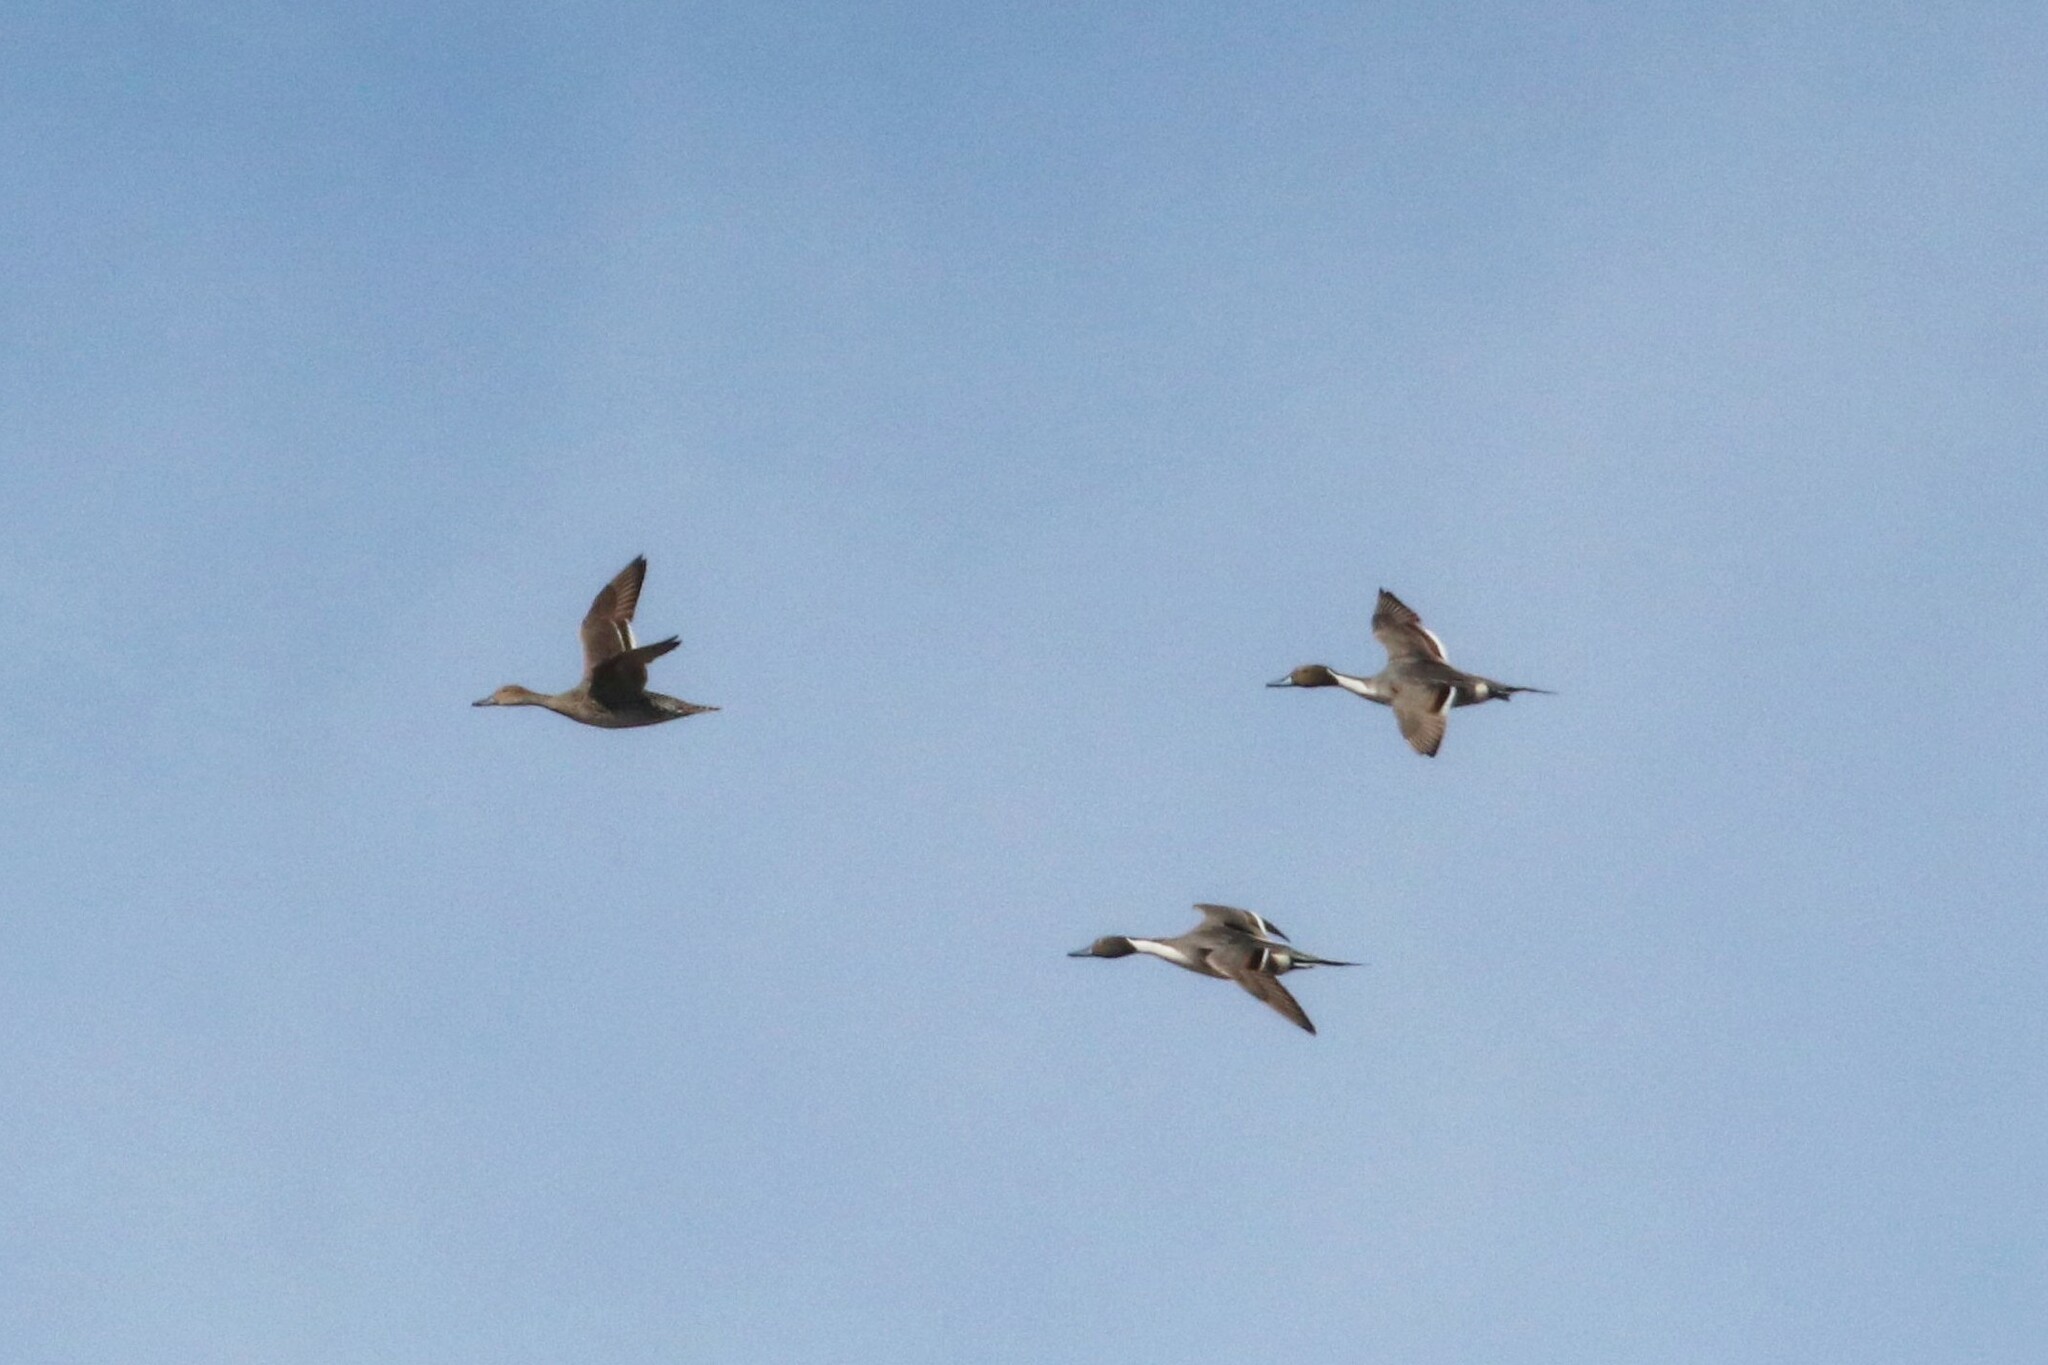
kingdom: Animalia
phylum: Chordata
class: Aves
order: Anseriformes
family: Anatidae
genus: Anas
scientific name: Anas acuta
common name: Northern pintail
